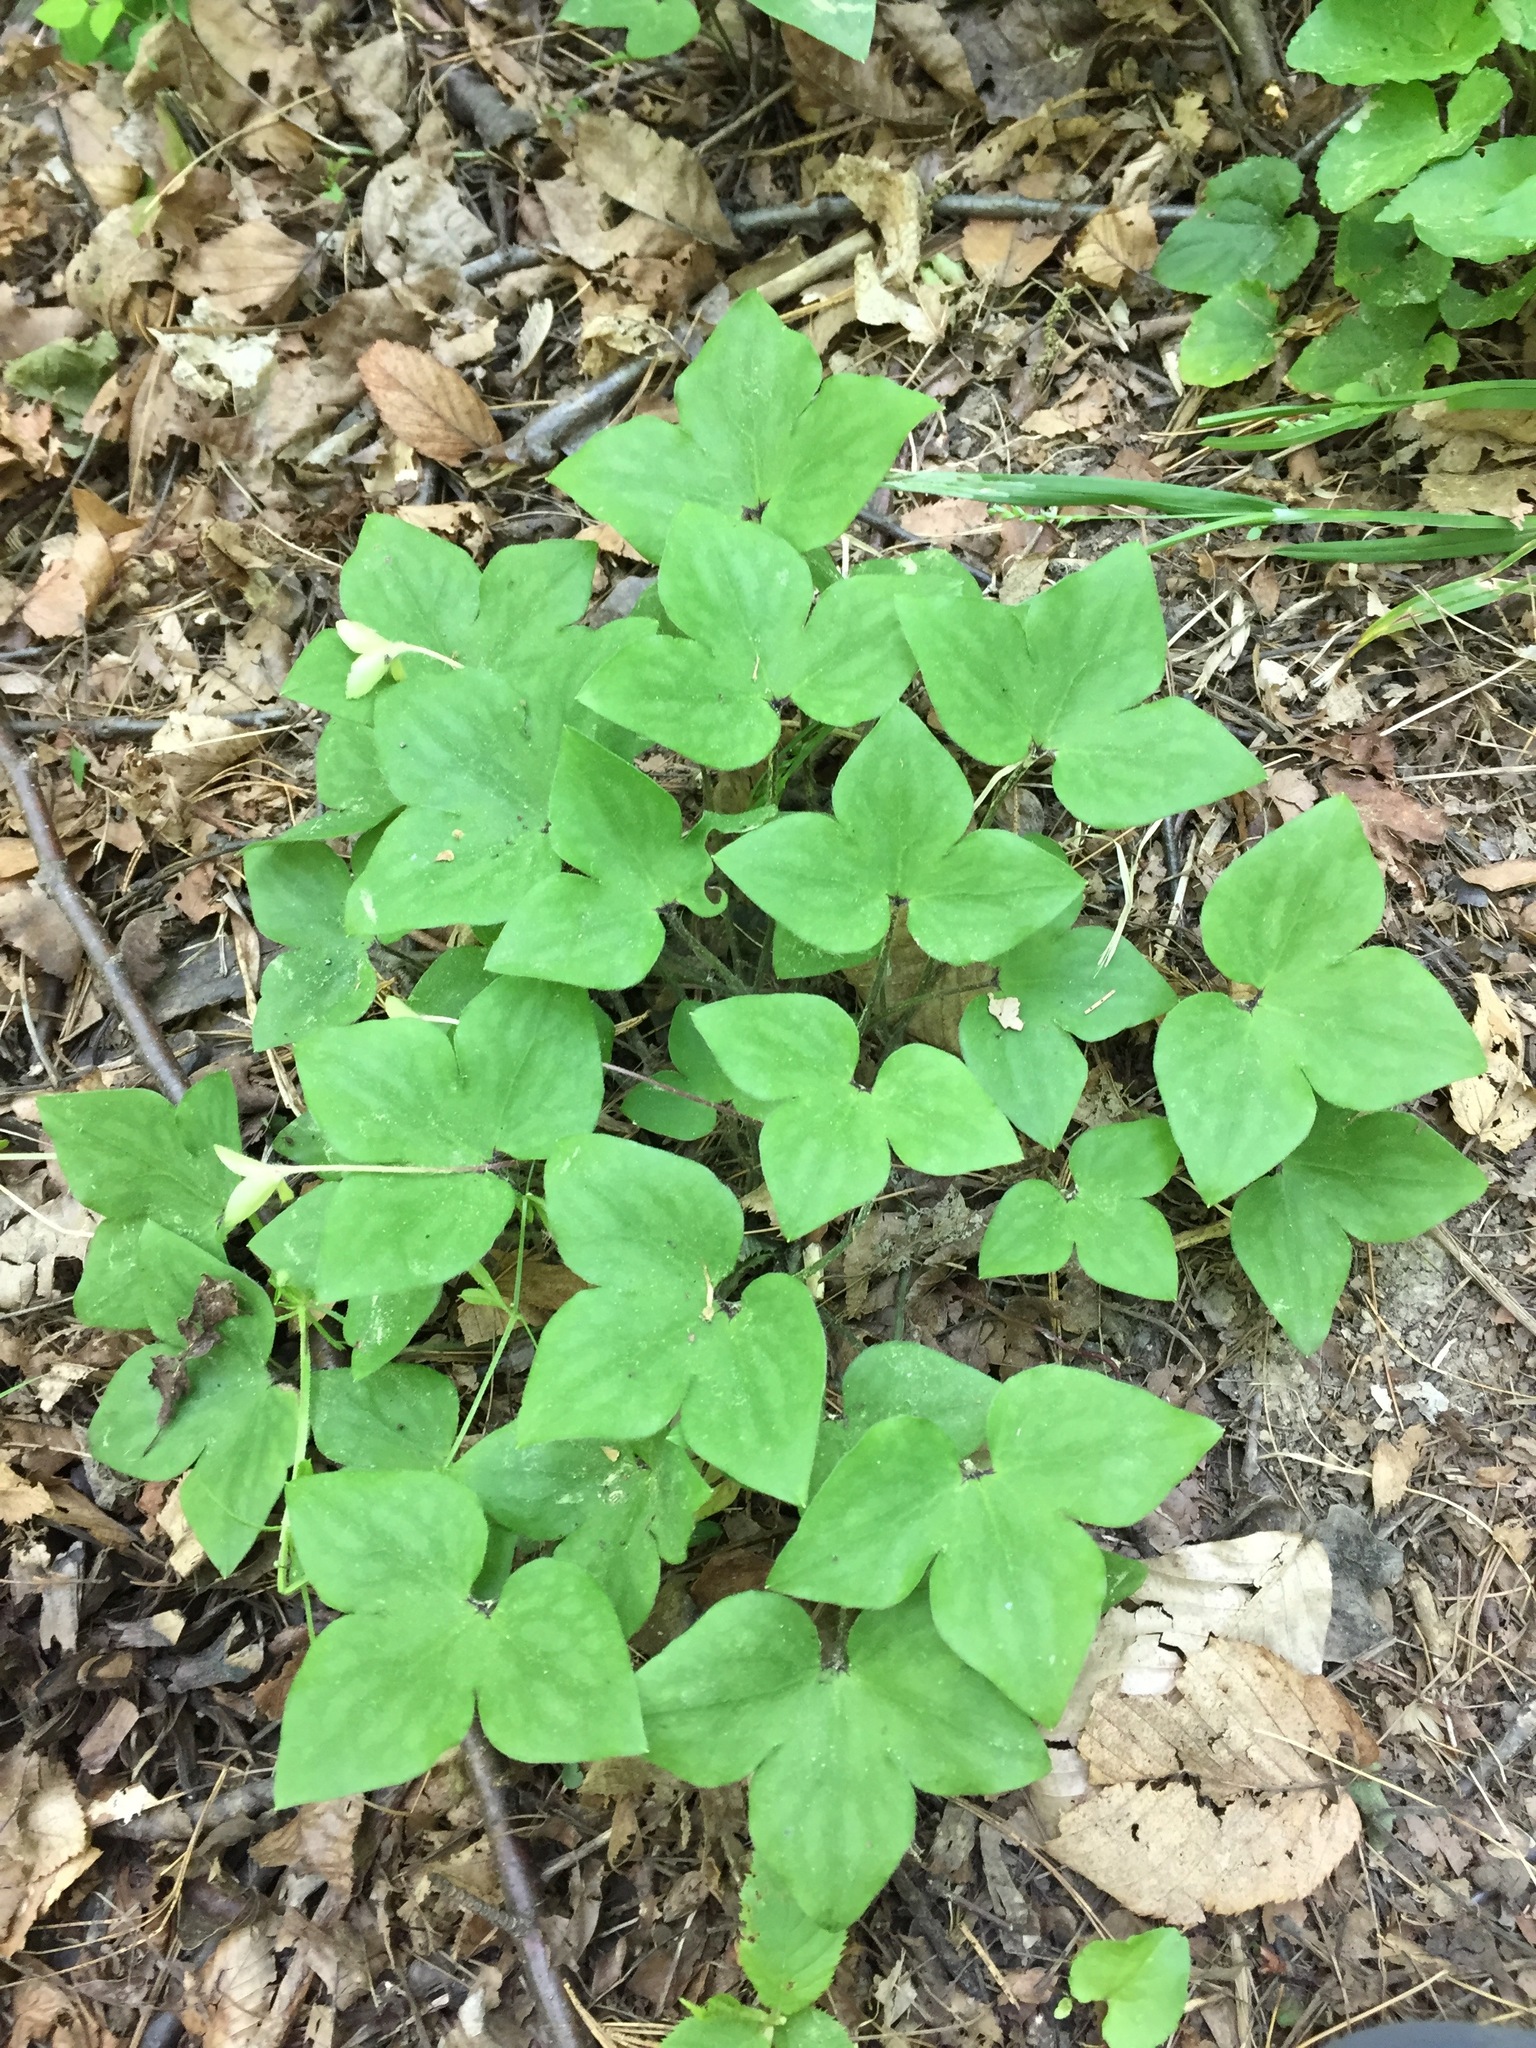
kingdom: Plantae
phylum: Tracheophyta
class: Magnoliopsida
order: Ranunculales
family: Ranunculaceae
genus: Hepatica
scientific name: Hepatica acutiloba
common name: Sharp-lobed hepatica
